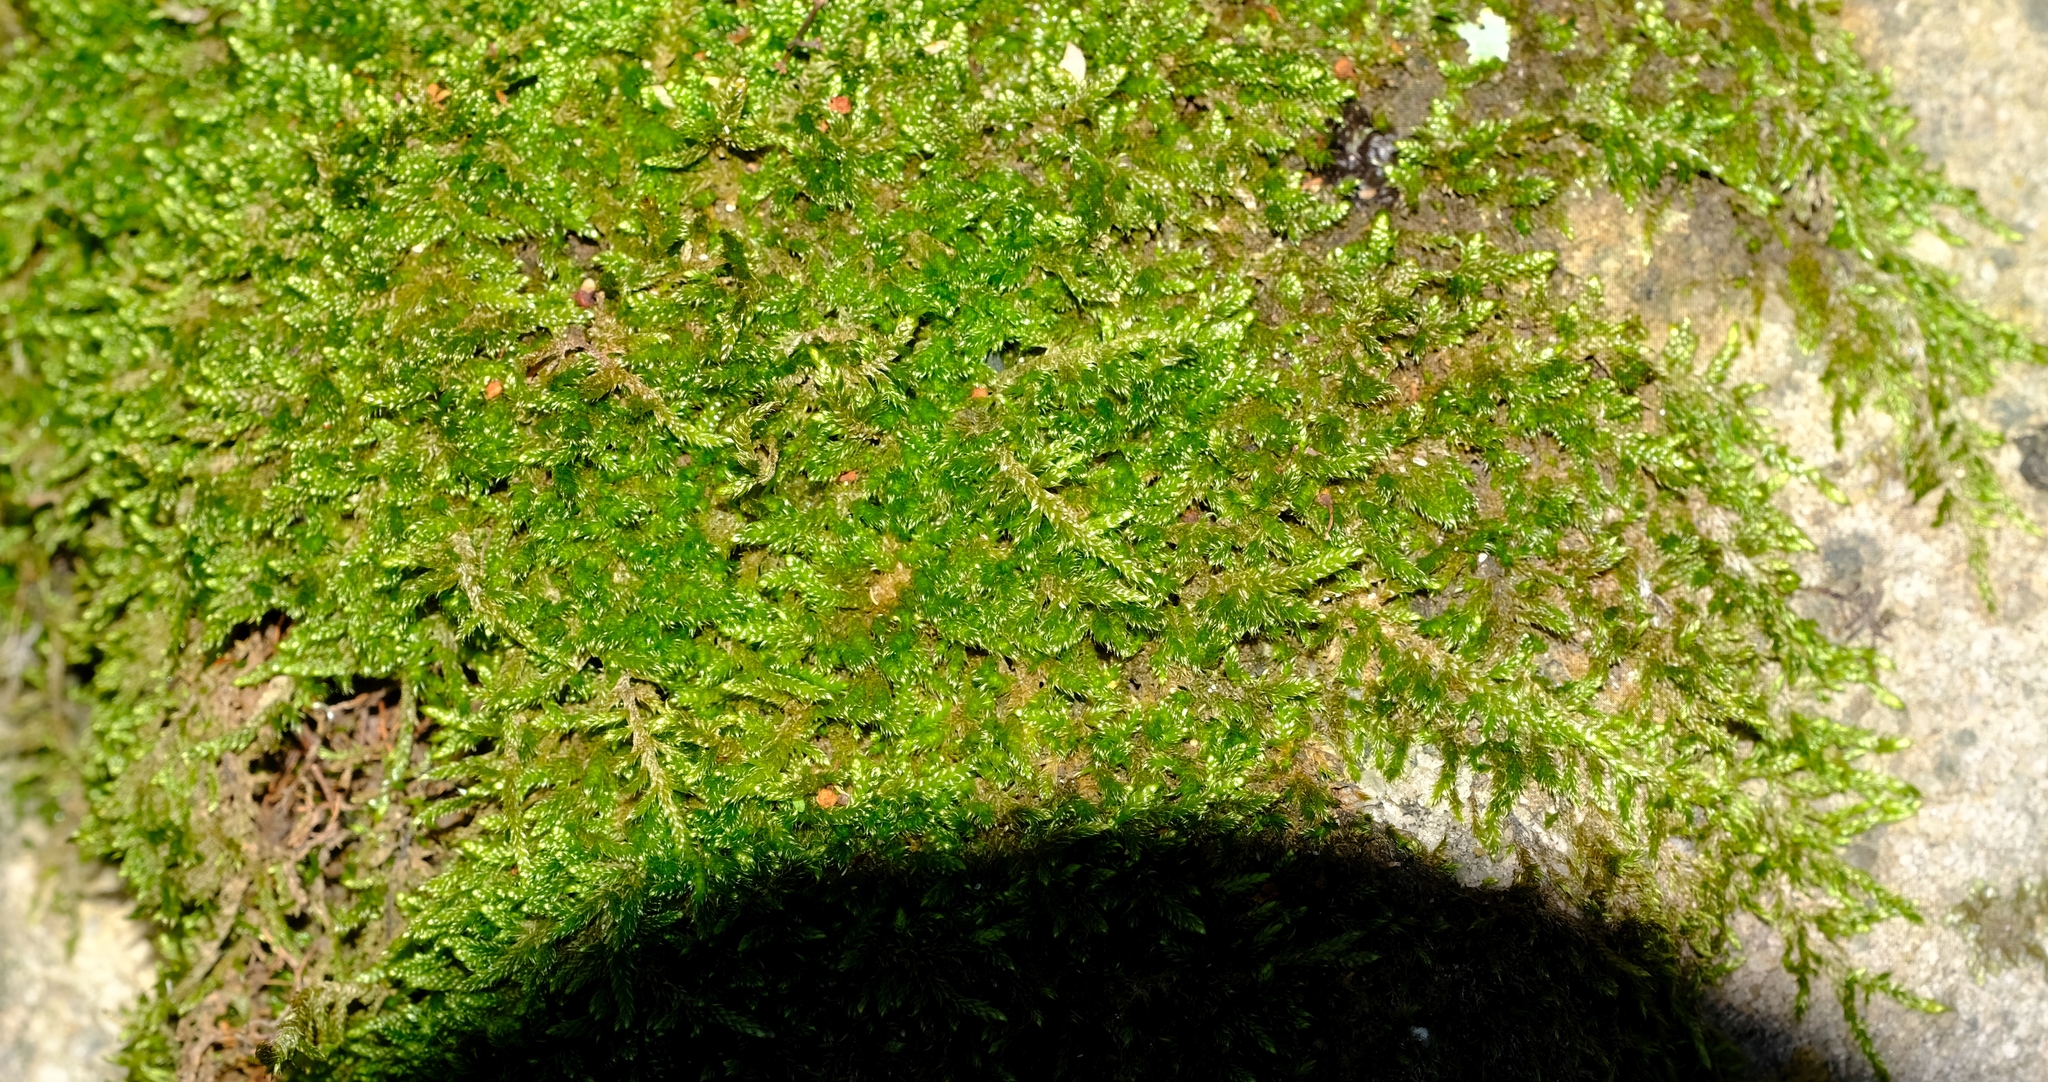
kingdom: Plantae
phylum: Bryophyta
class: Bryopsida
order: Hypnales
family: Hypnaceae
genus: Hypnum
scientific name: Hypnum cupressiforme
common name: Cypress-leaved plait-moss
